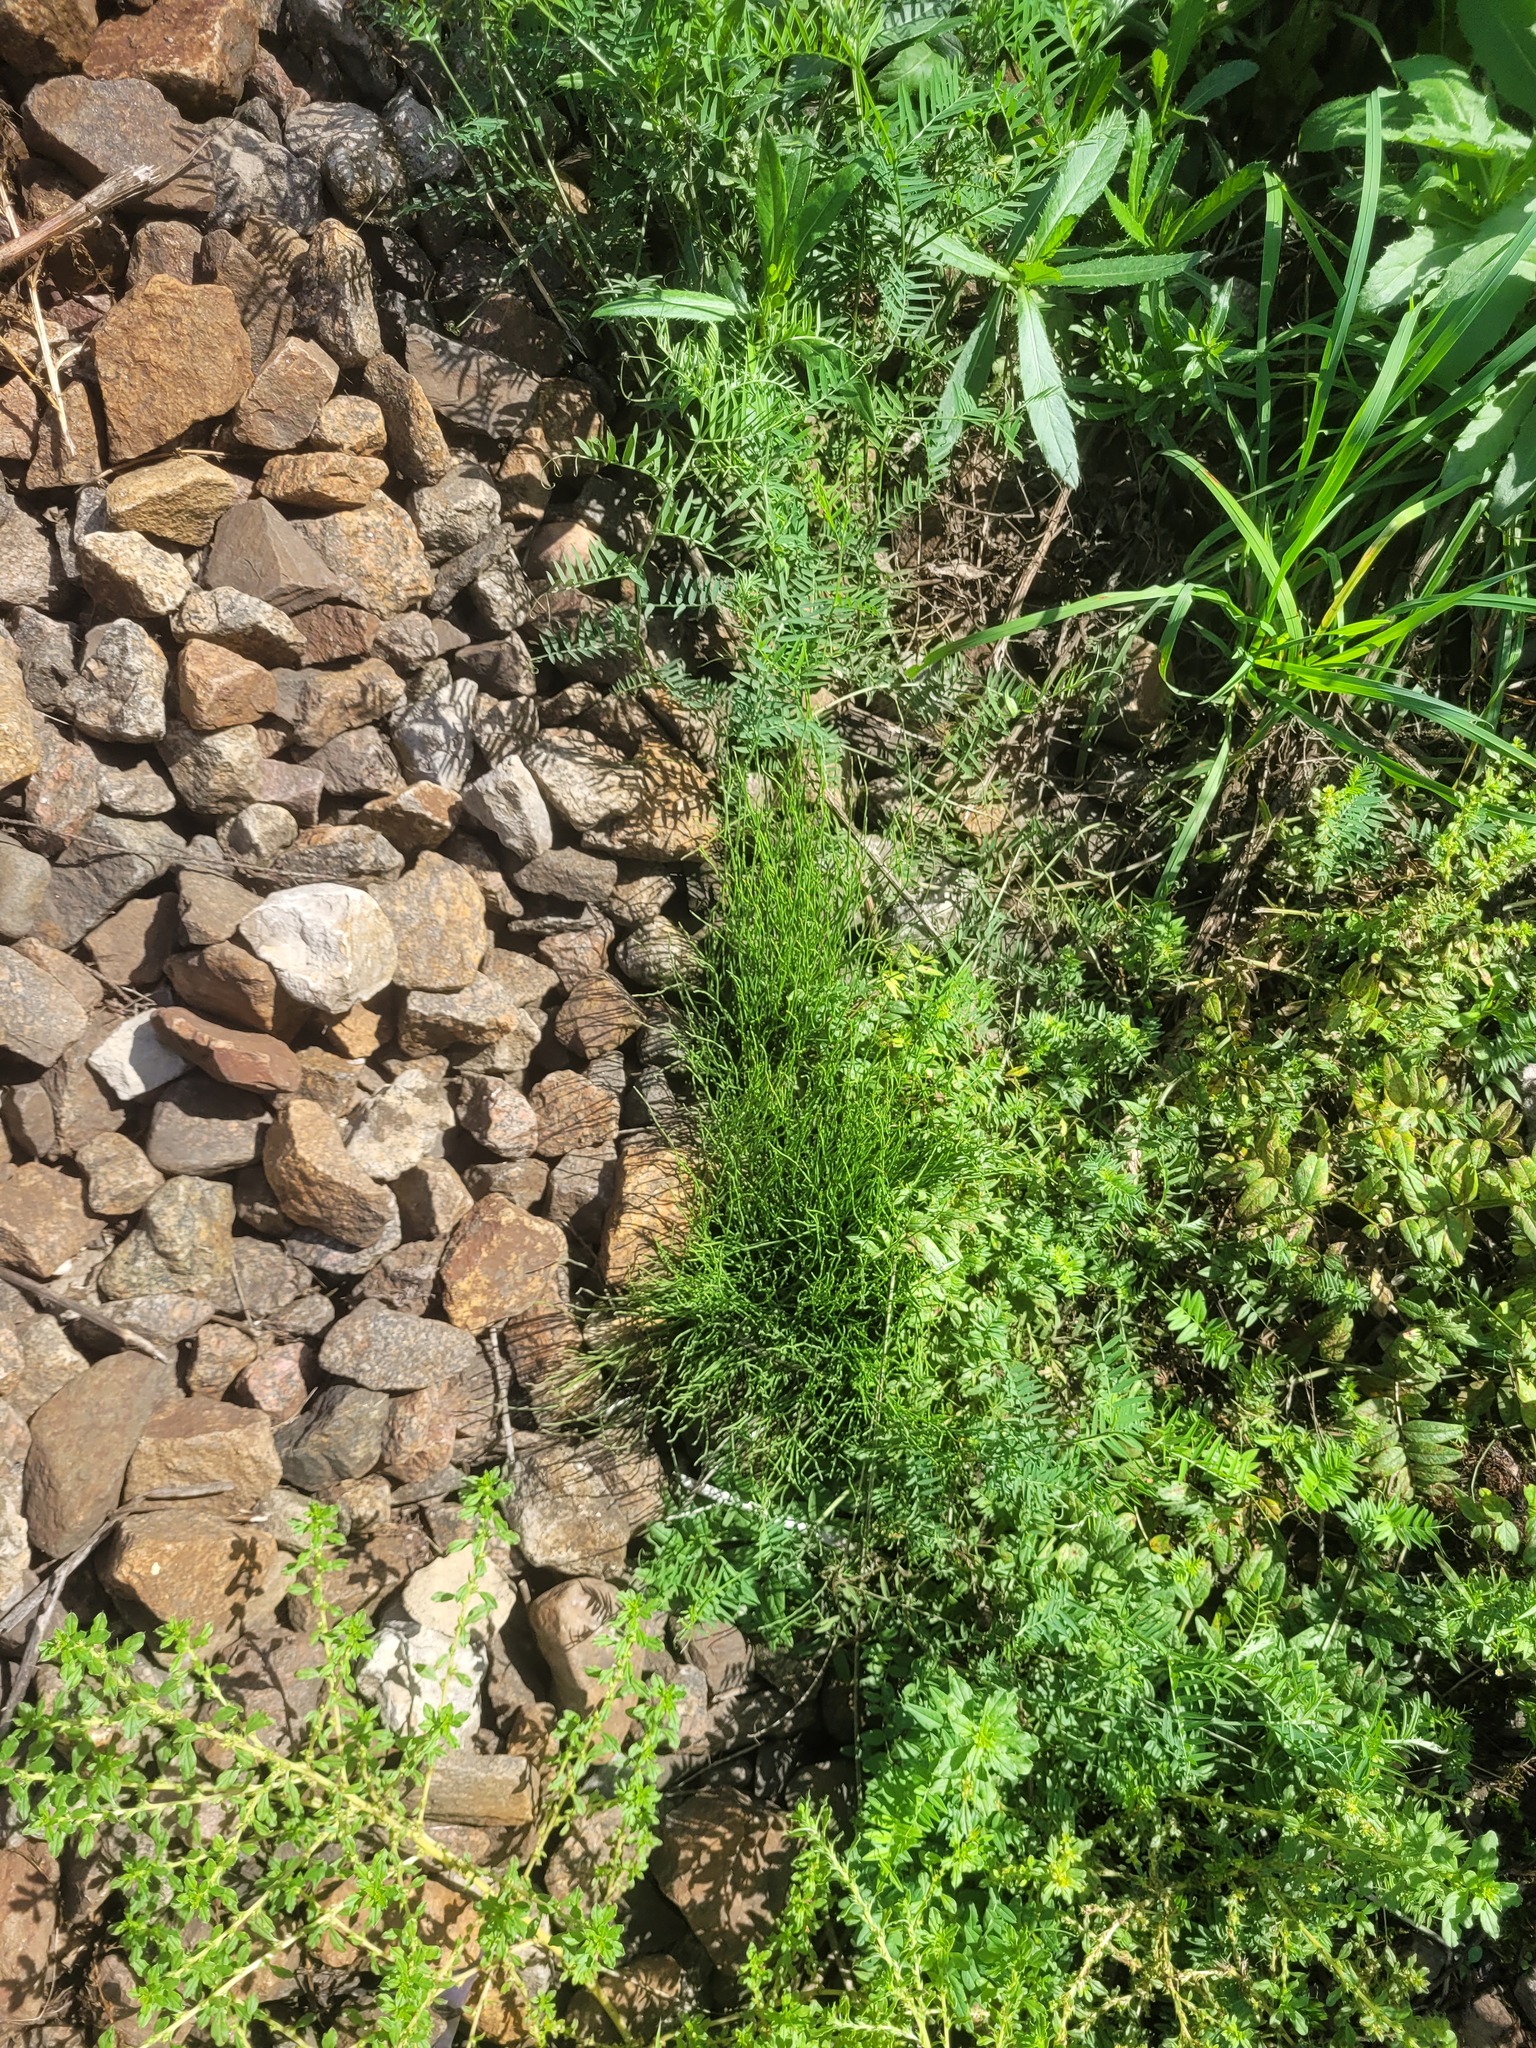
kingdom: Plantae
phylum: Tracheophyta
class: Polypodiopsida
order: Equisetales
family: Equisetaceae
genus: Equisetum
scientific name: Equisetum arvense
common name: Field horsetail
